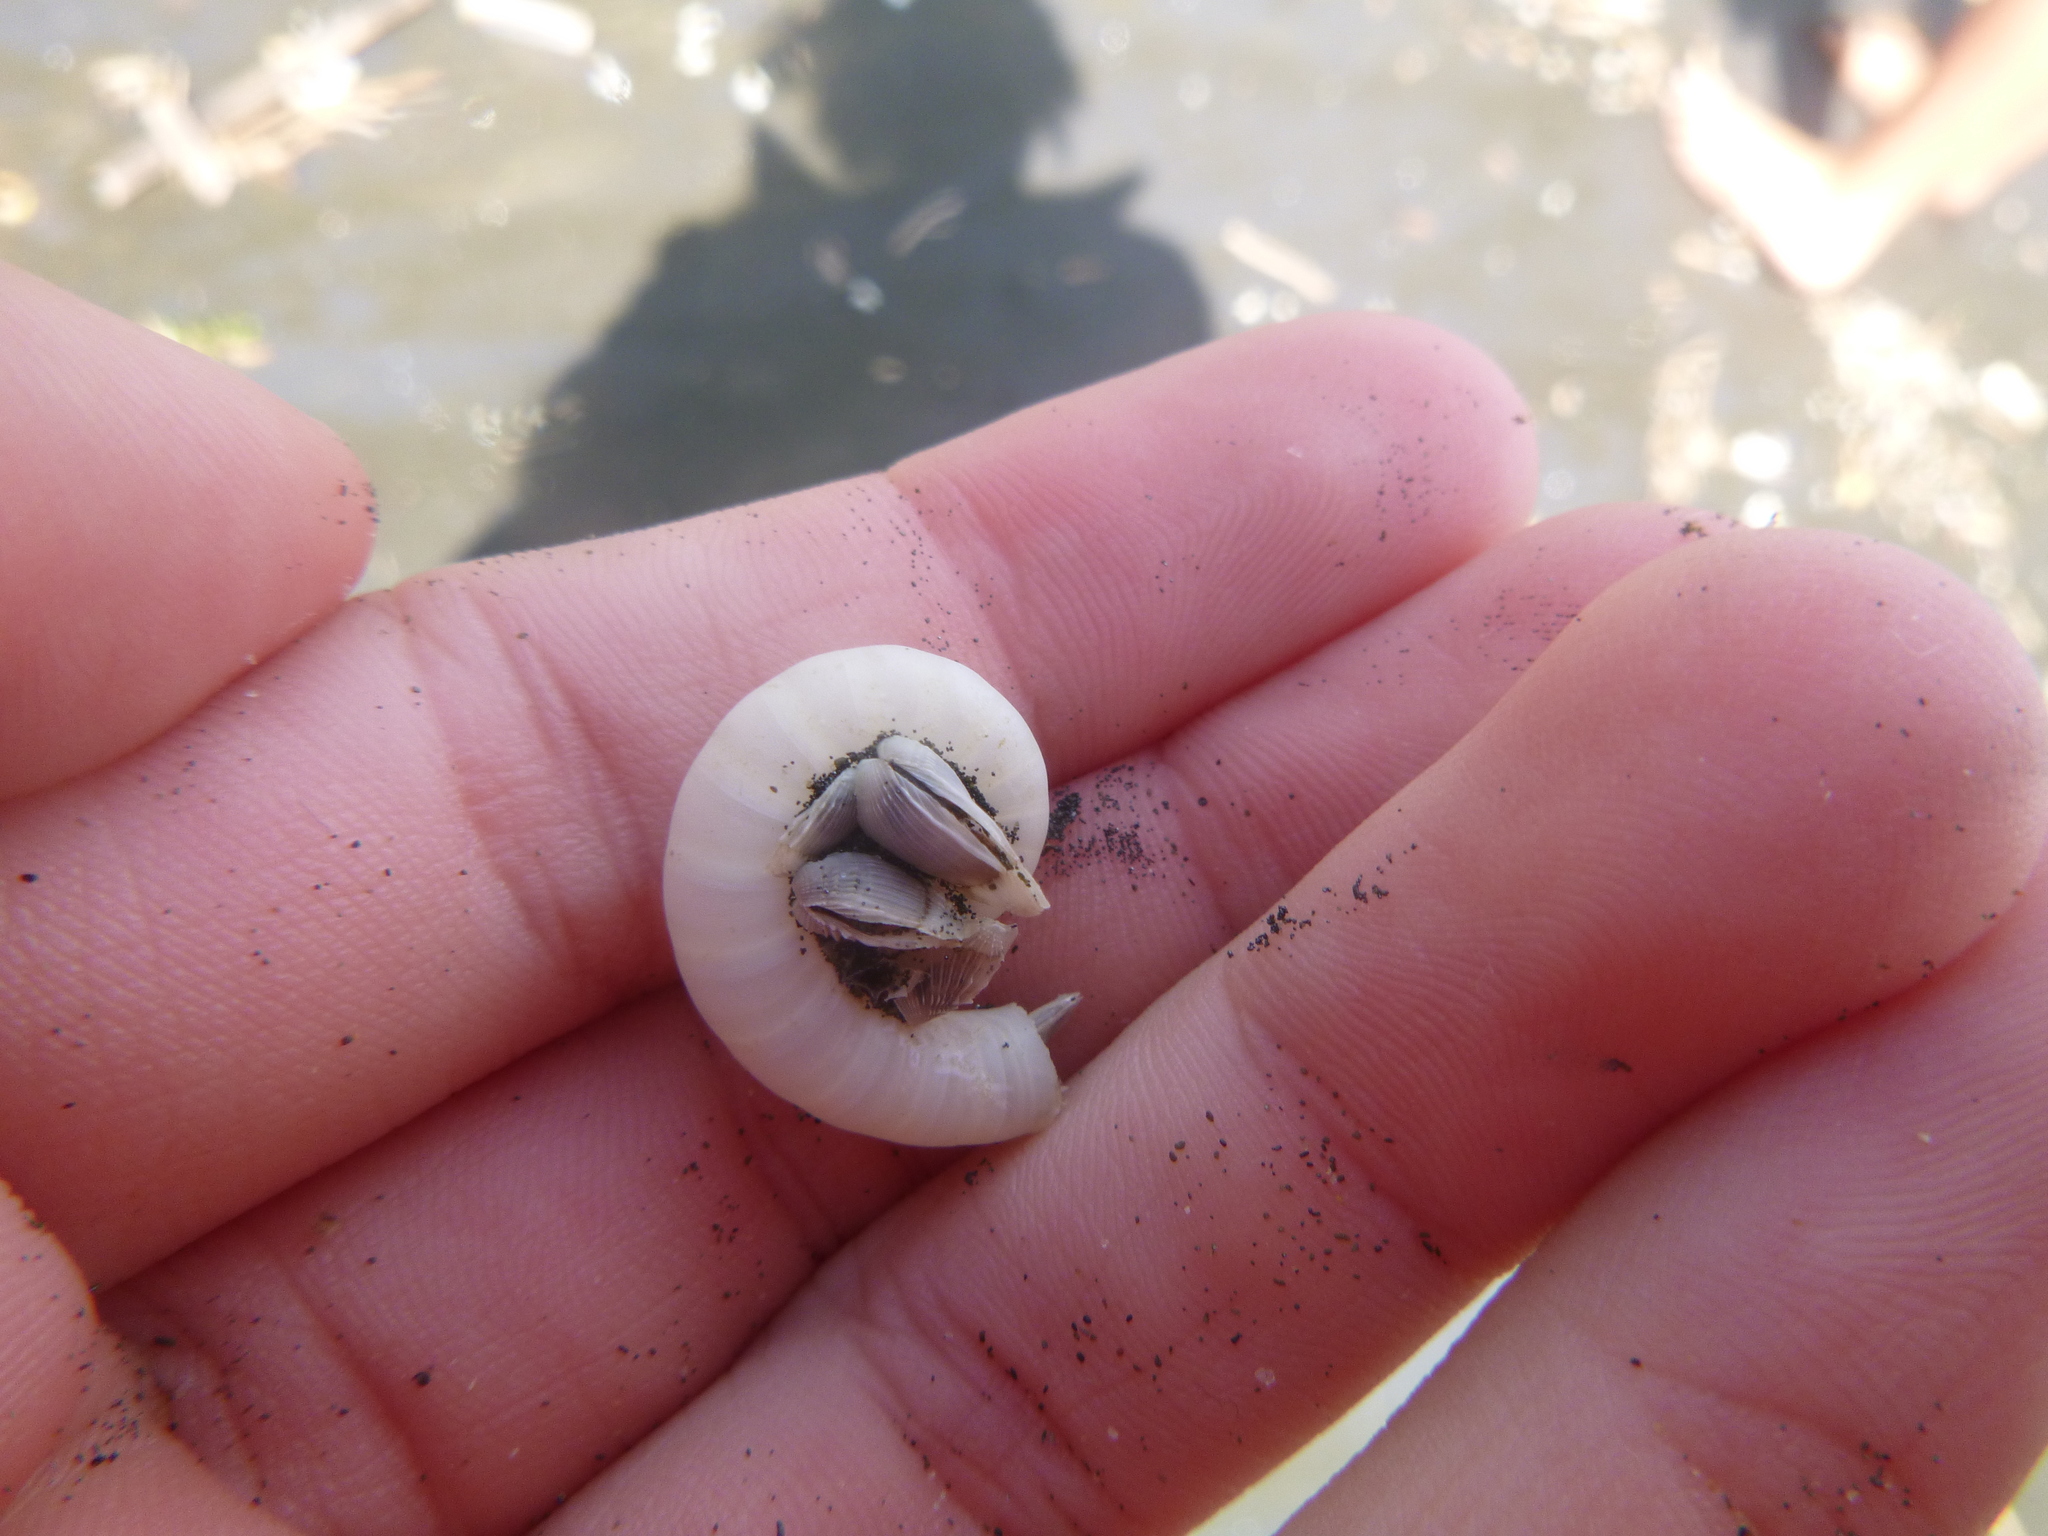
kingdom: Animalia
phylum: Arthropoda
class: Maxillopoda
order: Pedunculata
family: Lepadidae
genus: Lepas
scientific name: Lepas pectinata
